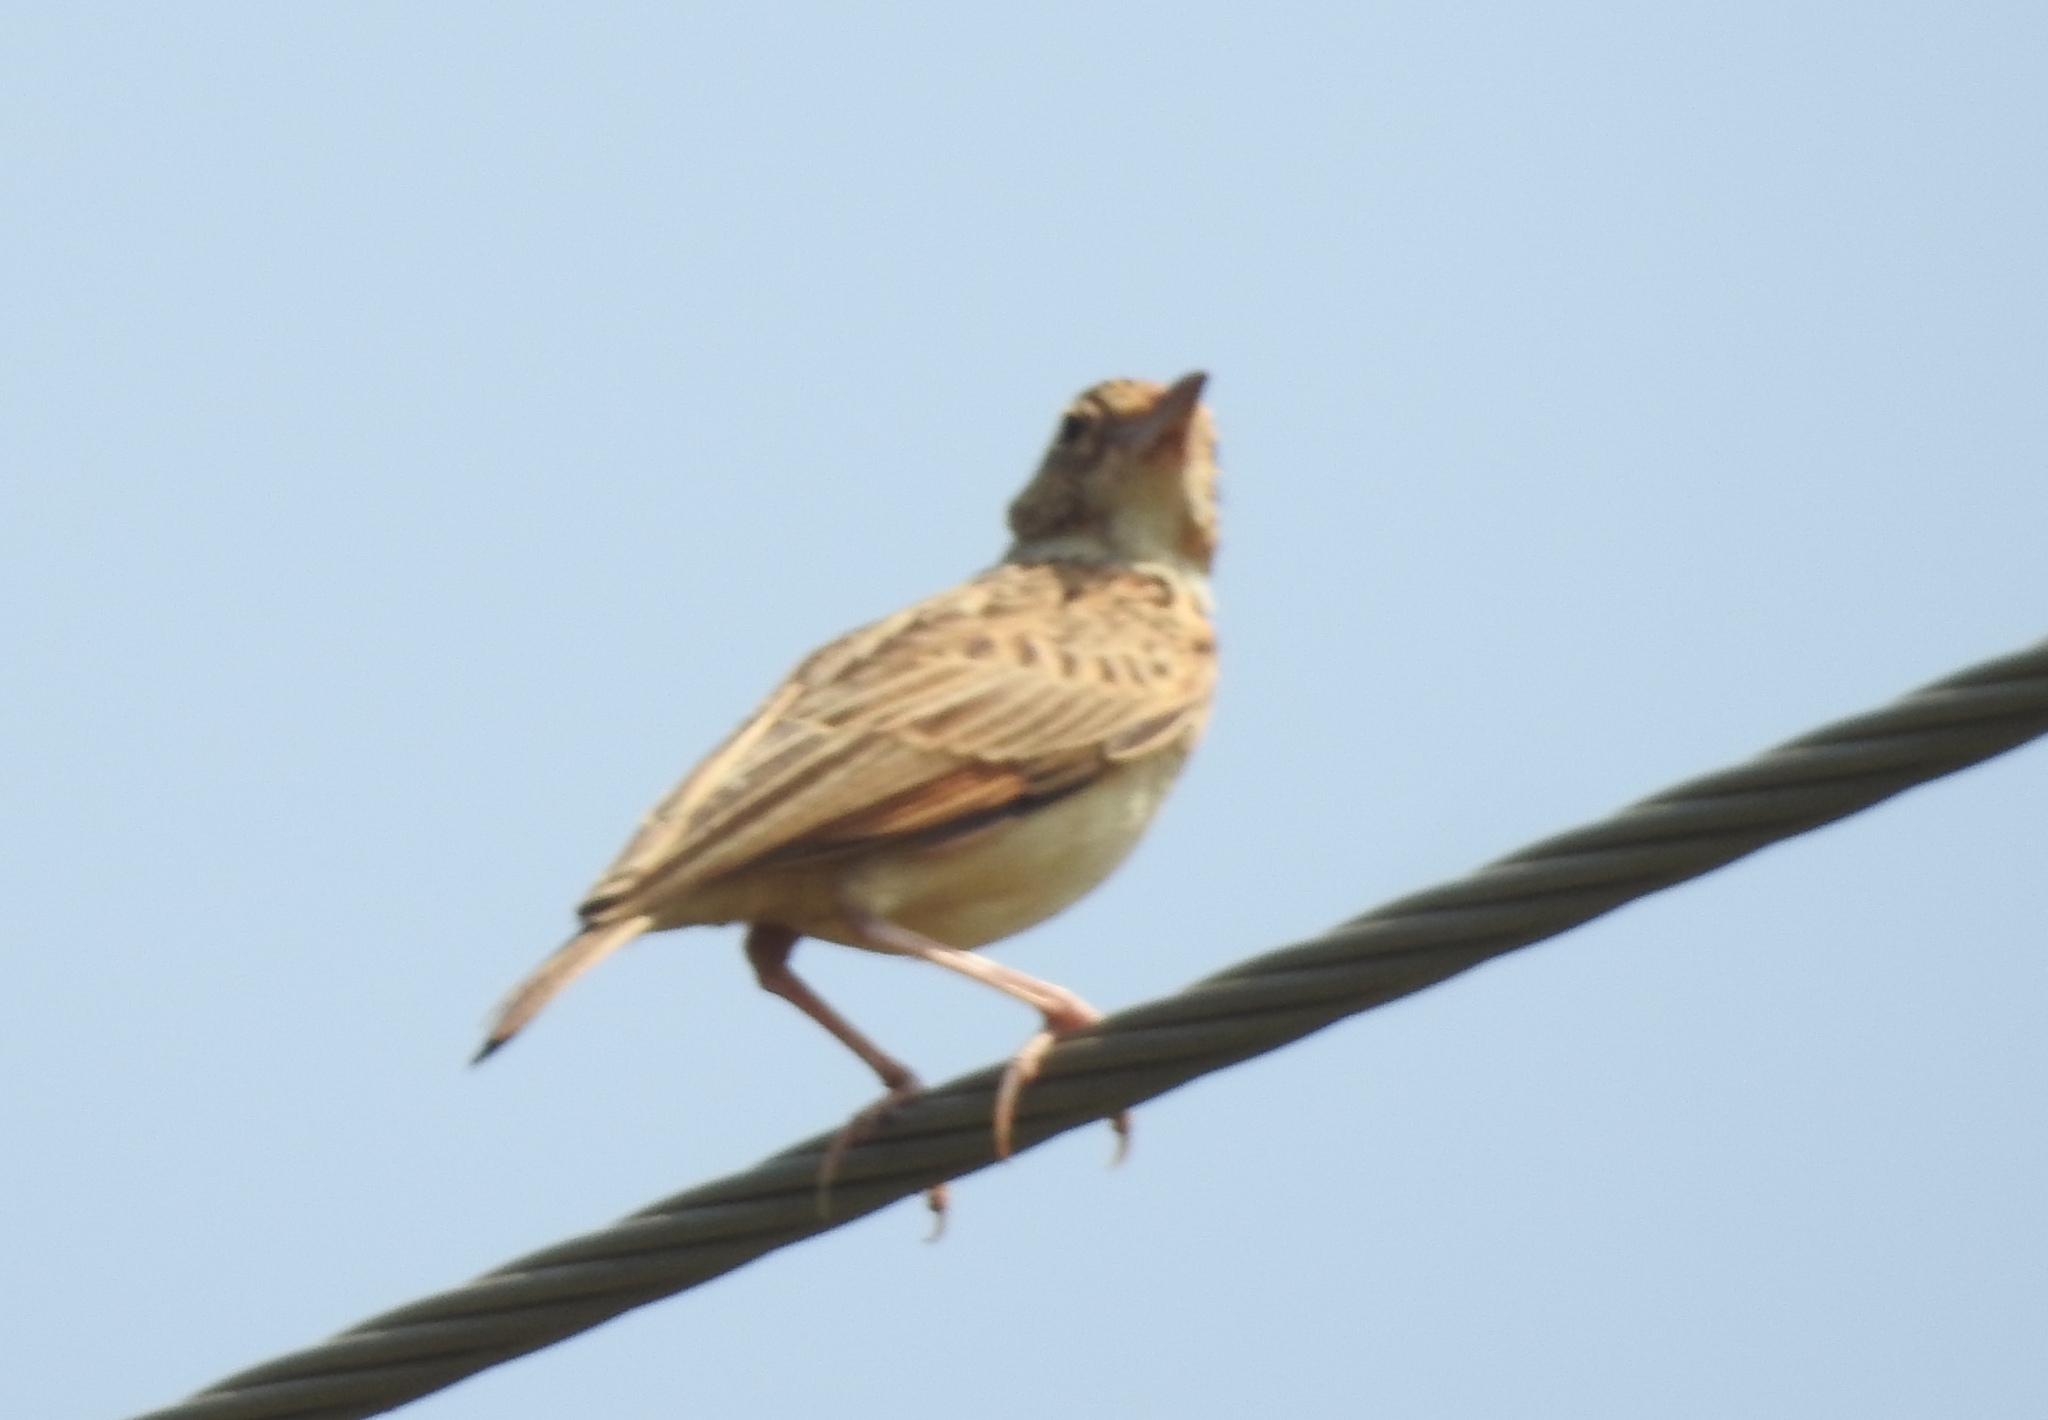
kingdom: Animalia
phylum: Chordata
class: Aves
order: Passeriformes
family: Alaudidae
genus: Mirafra
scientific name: Mirafra affinis
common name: Jerdon's bushlark
